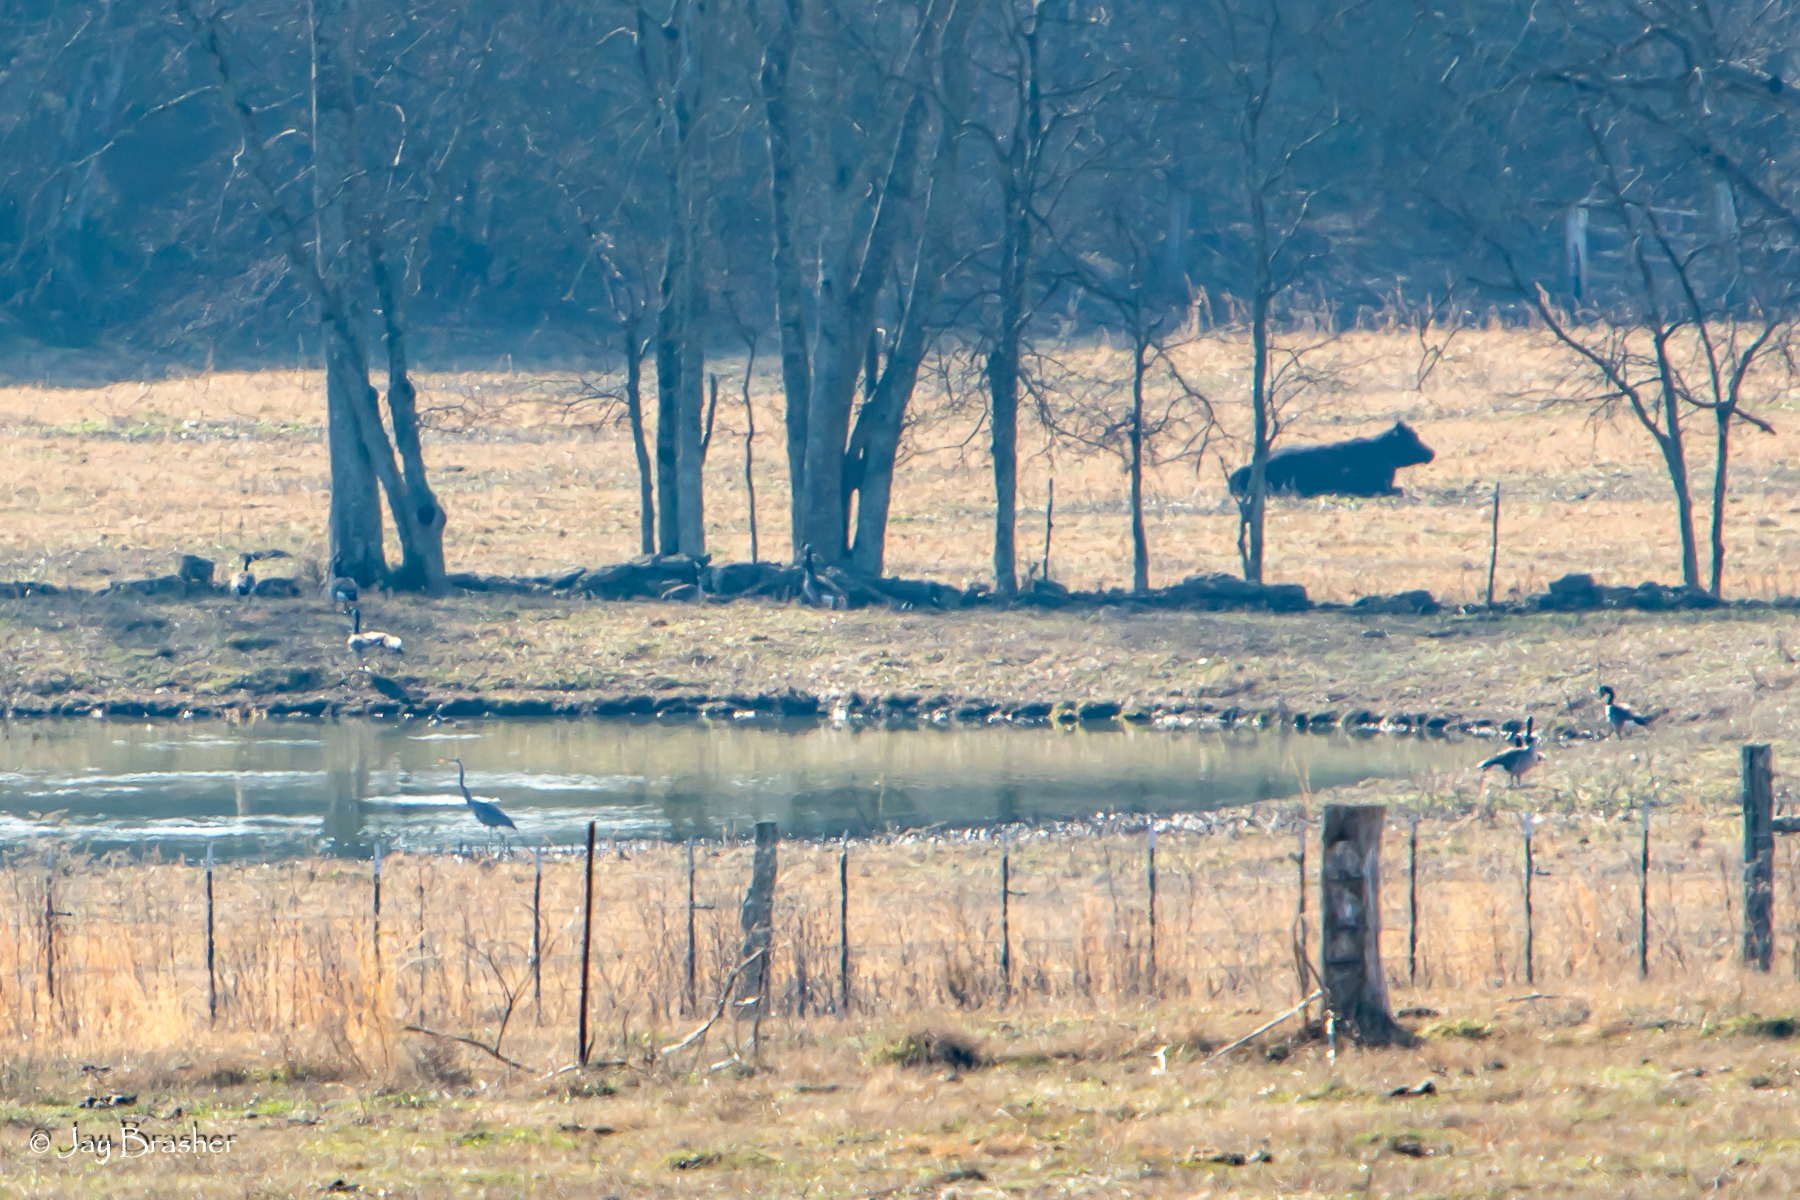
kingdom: Animalia
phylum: Chordata
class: Aves
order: Pelecaniformes
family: Ardeidae
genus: Ardea
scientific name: Ardea herodias
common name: Great blue heron
